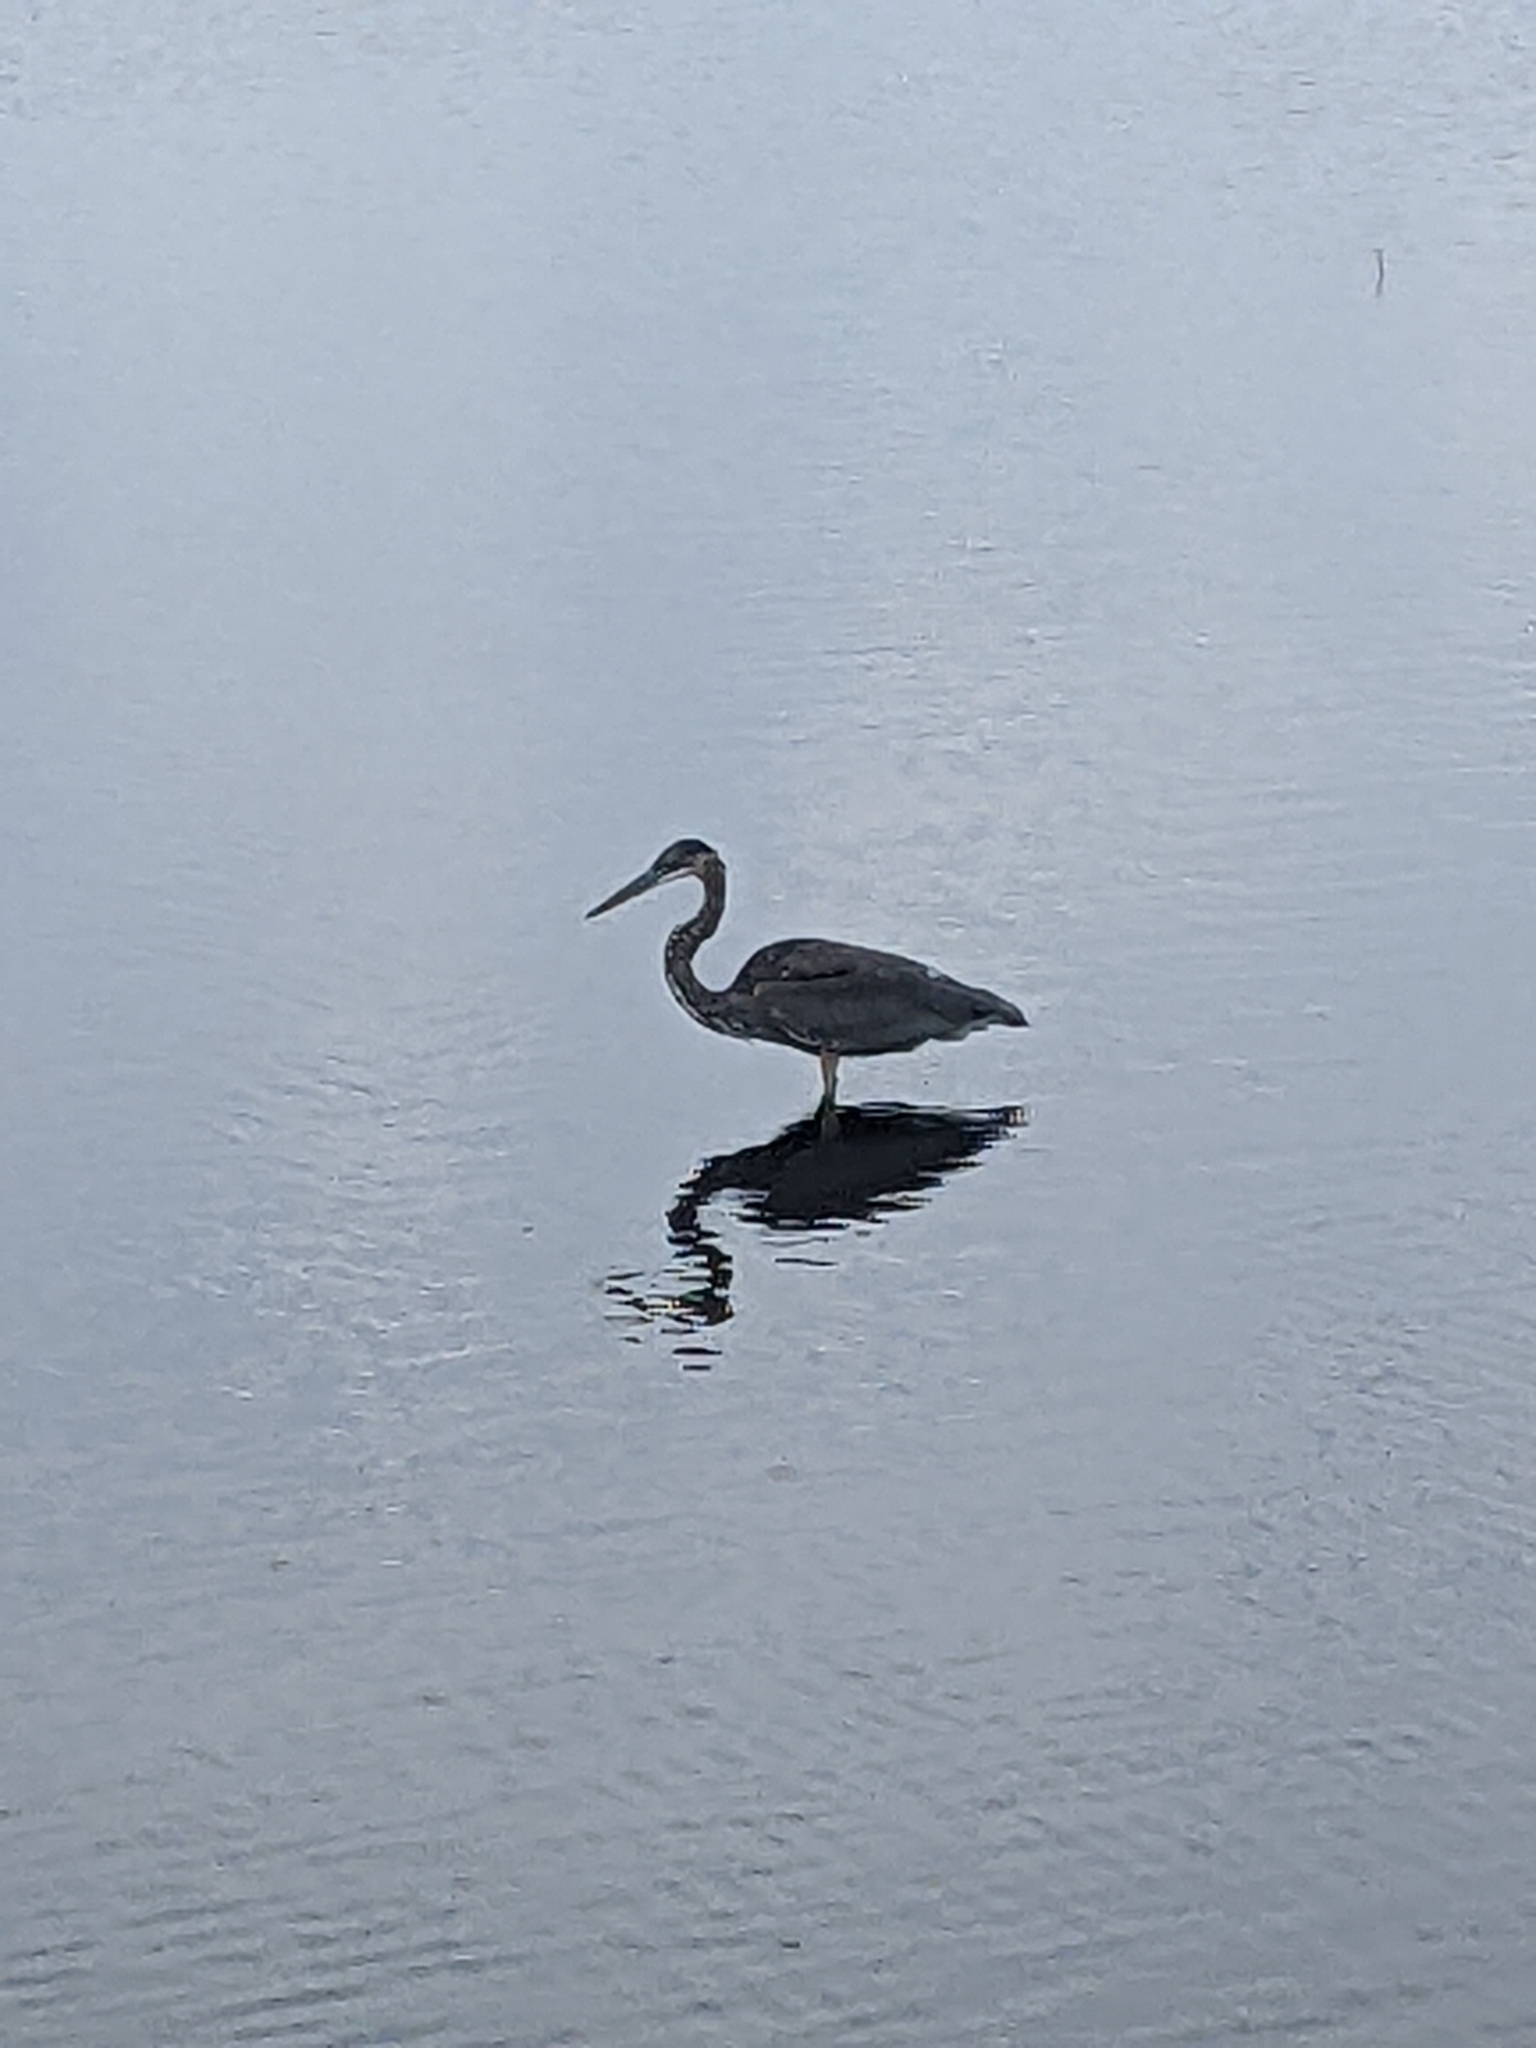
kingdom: Animalia
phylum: Chordata
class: Aves
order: Pelecaniformes
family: Ardeidae
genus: Ardea
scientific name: Ardea herodias
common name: Great blue heron
